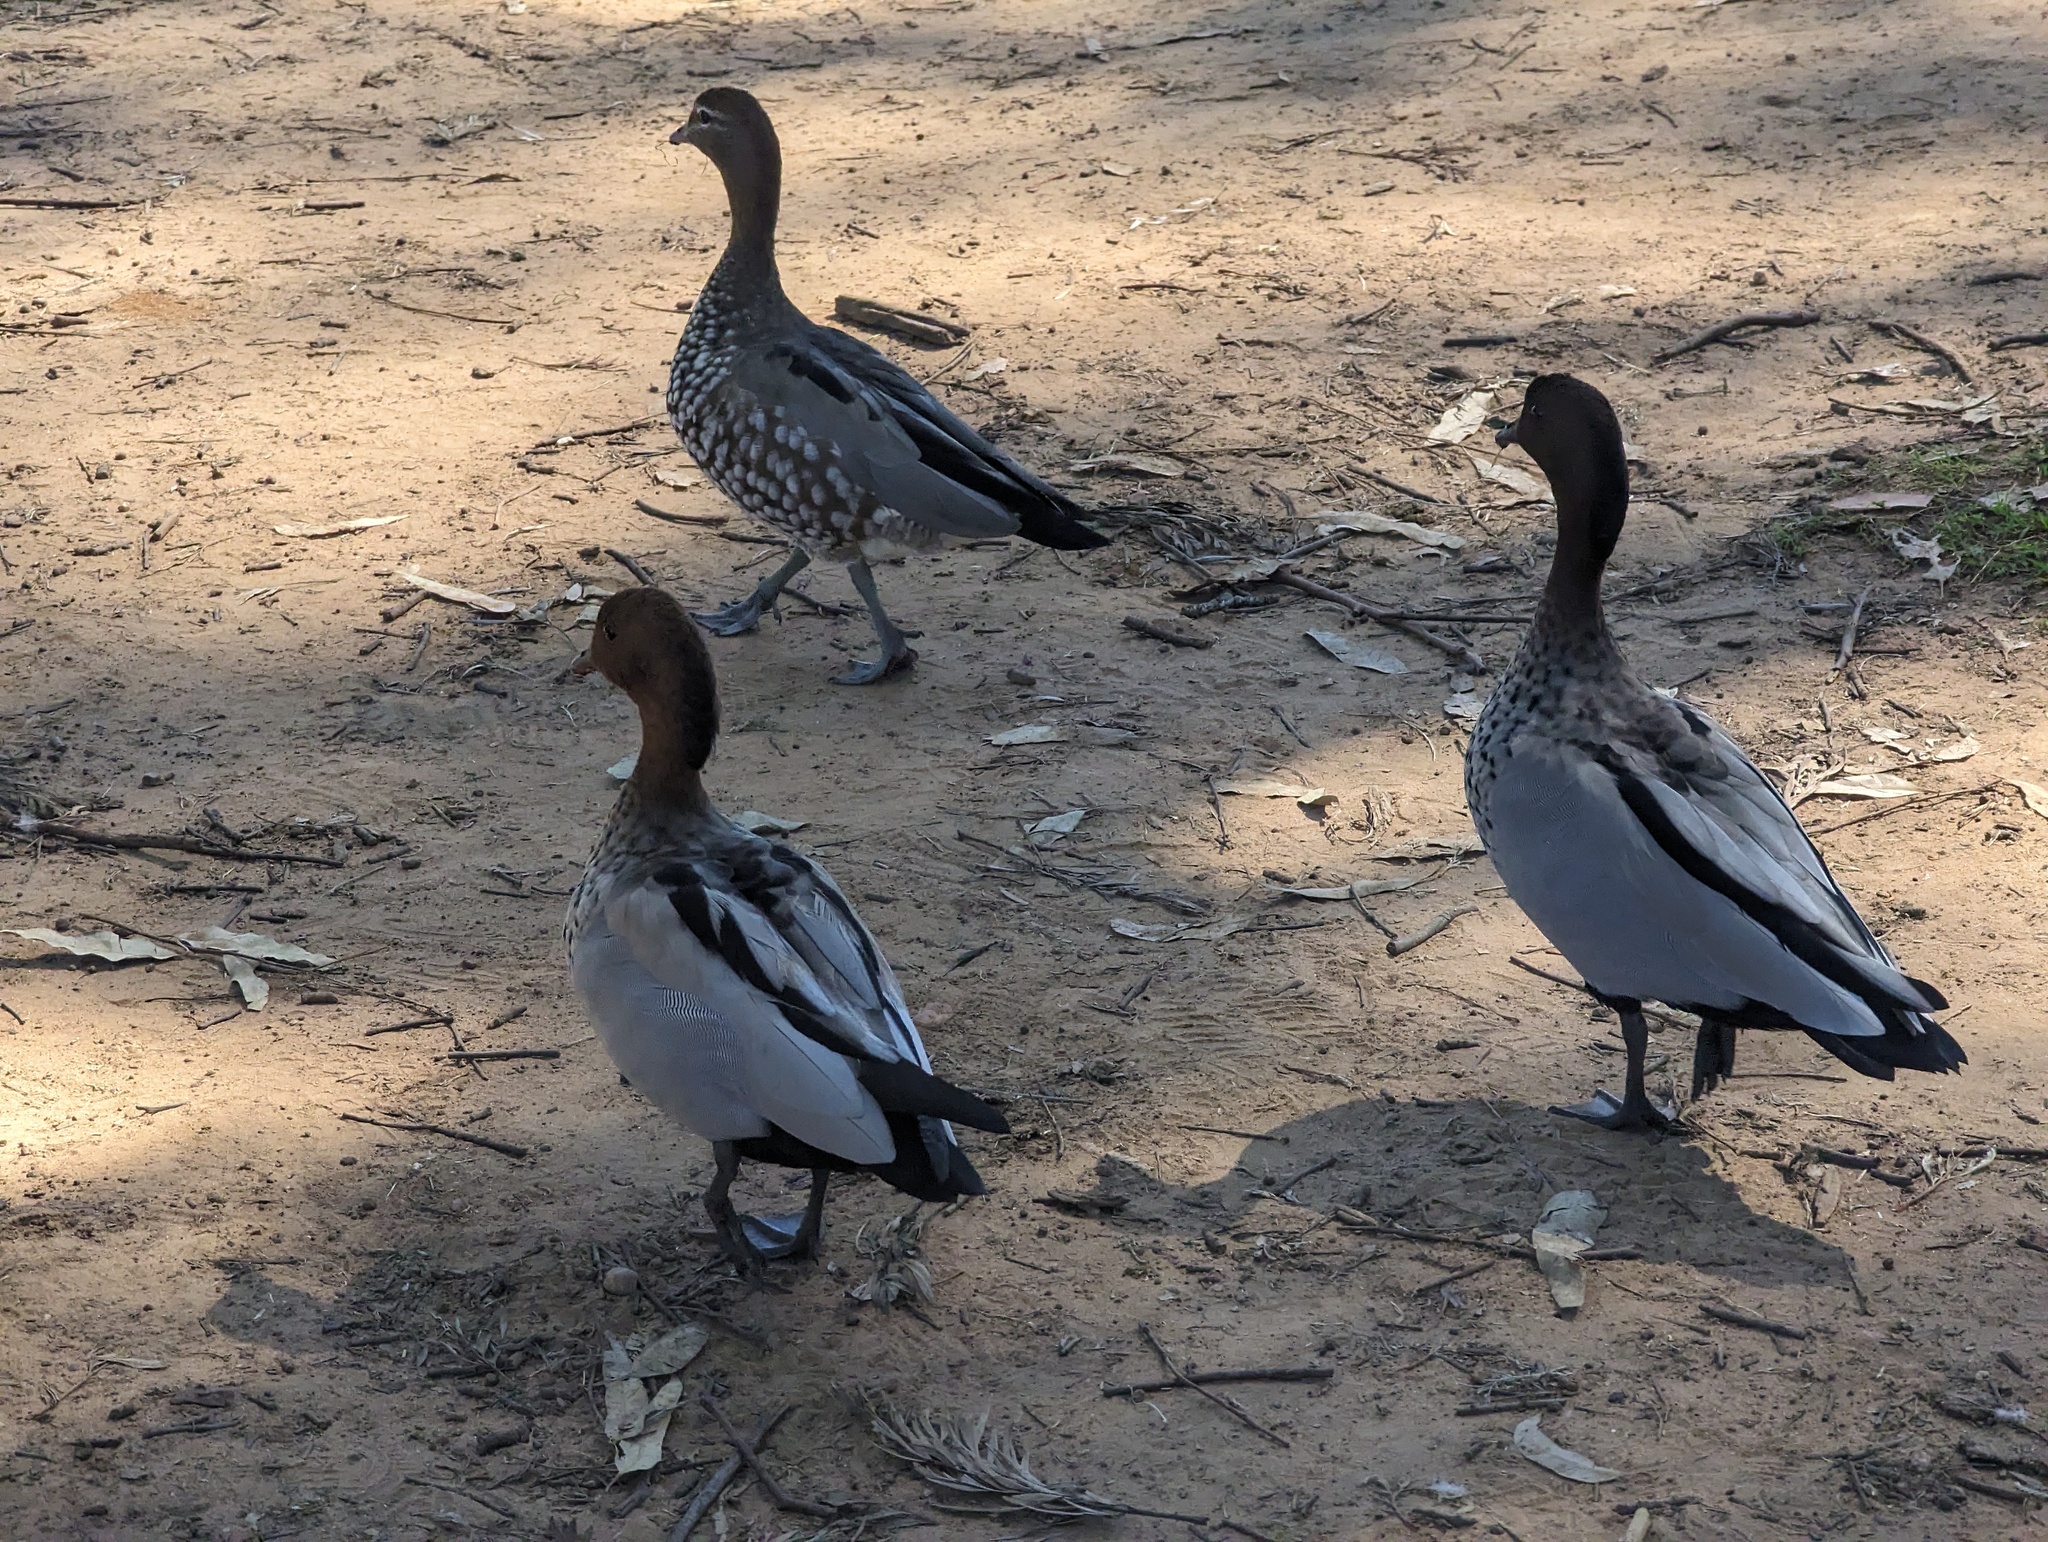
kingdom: Animalia
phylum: Chordata
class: Aves
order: Anseriformes
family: Anatidae
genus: Chenonetta
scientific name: Chenonetta jubata
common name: Maned duck
